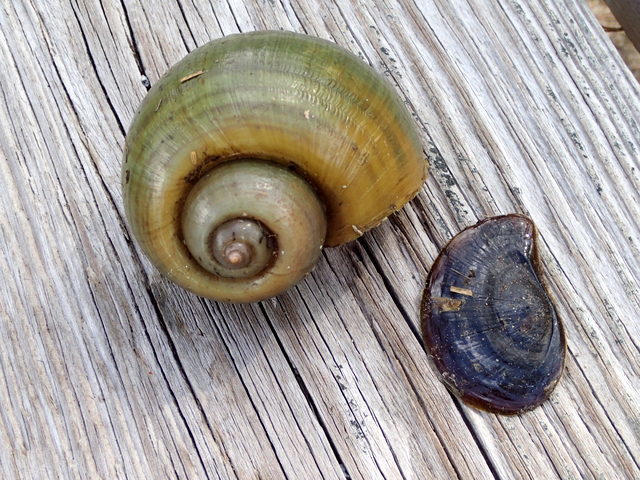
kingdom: Animalia
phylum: Mollusca
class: Gastropoda
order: Architaenioglossa
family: Ampullariidae
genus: Pomacea
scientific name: Pomacea maculata
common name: Giant applesnail
